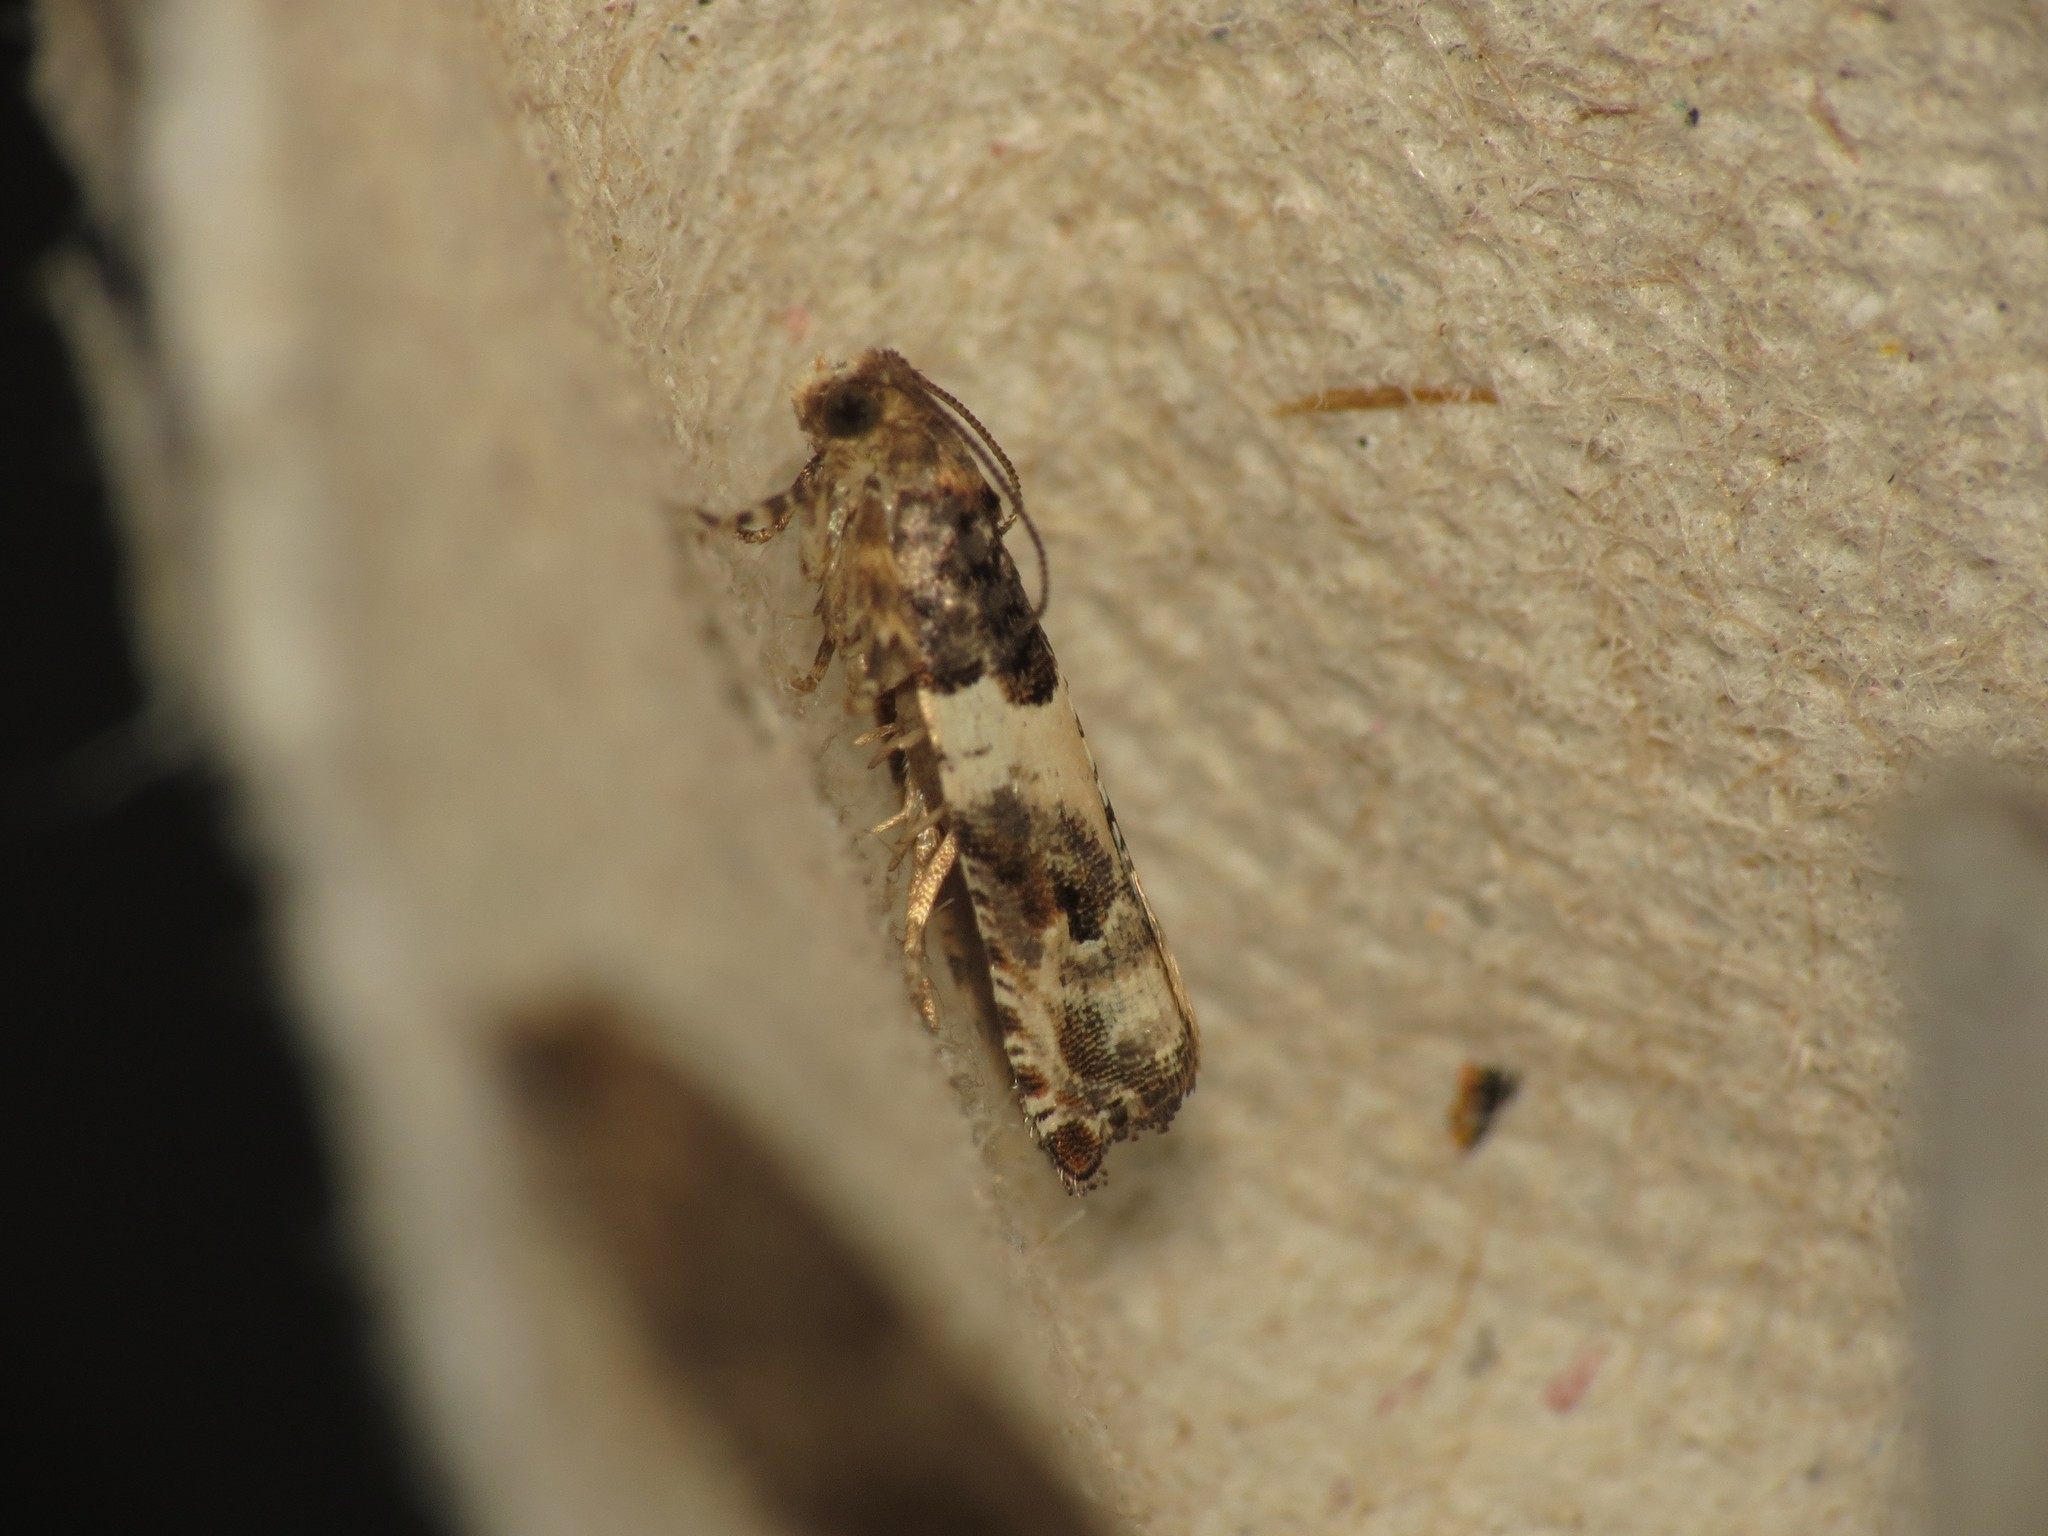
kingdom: Animalia
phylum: Arthropoda
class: Insecta
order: Lepidoptera
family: Tortricidae
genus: Gypsonoma
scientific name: Gypsonoma dealbana
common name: Common cloaked shoot
